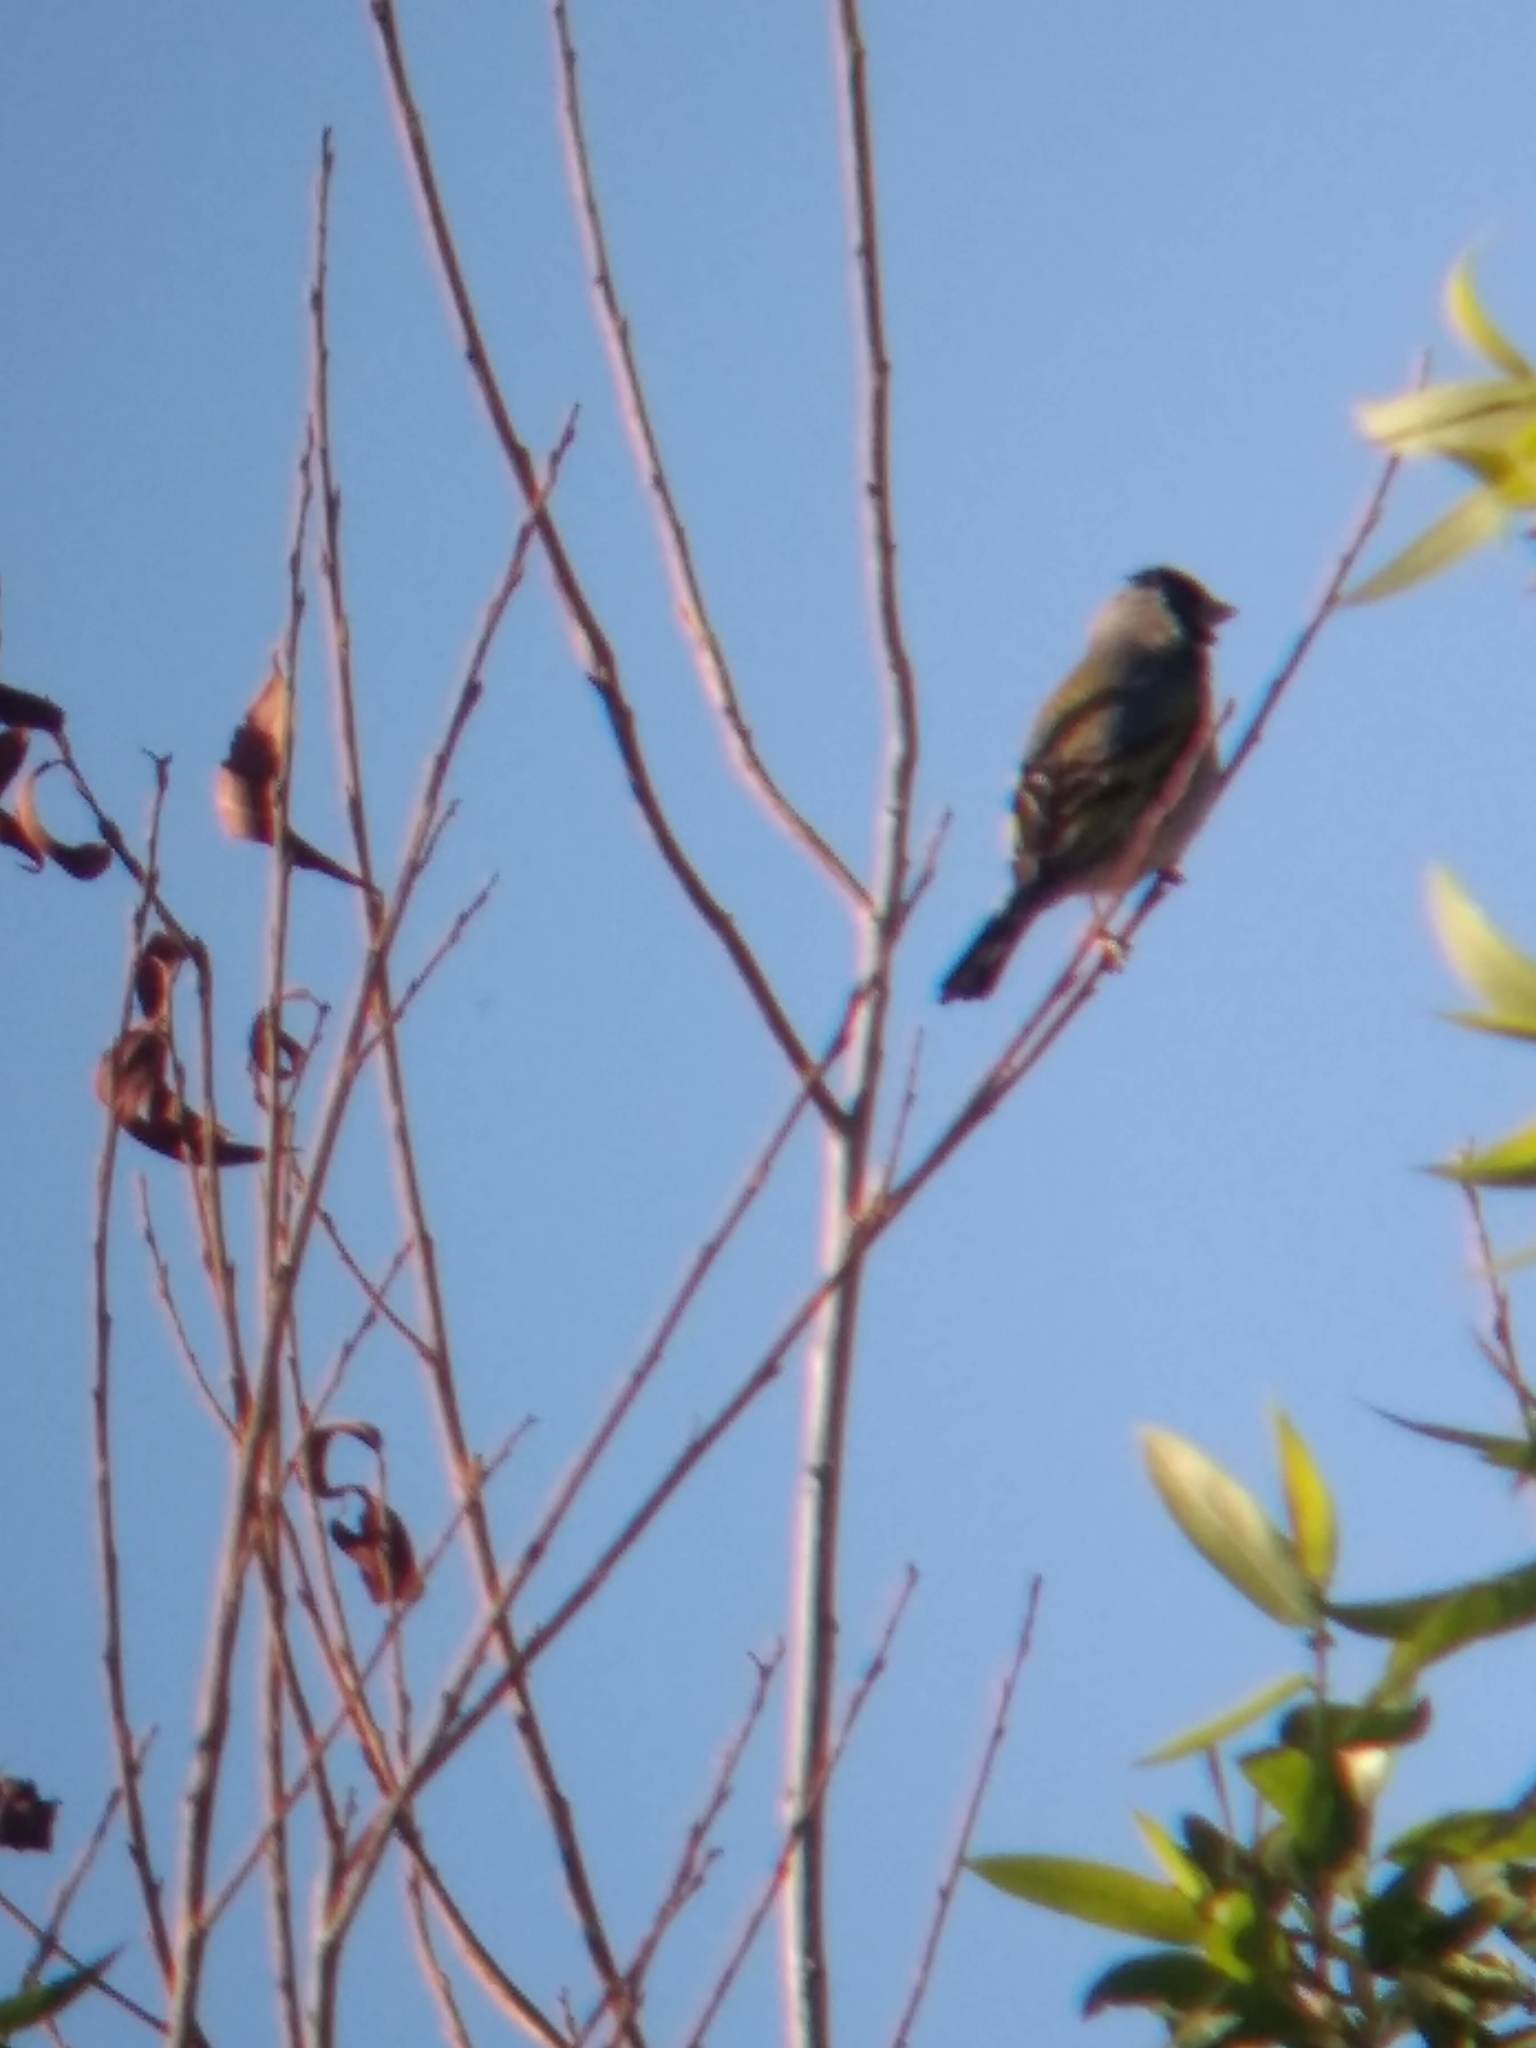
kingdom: Animalia
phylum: Chordata
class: Aves
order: Passeriformes
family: Fringillidae
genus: Spinus
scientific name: Spinus lawrencei
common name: Lawrence's goldfinch
